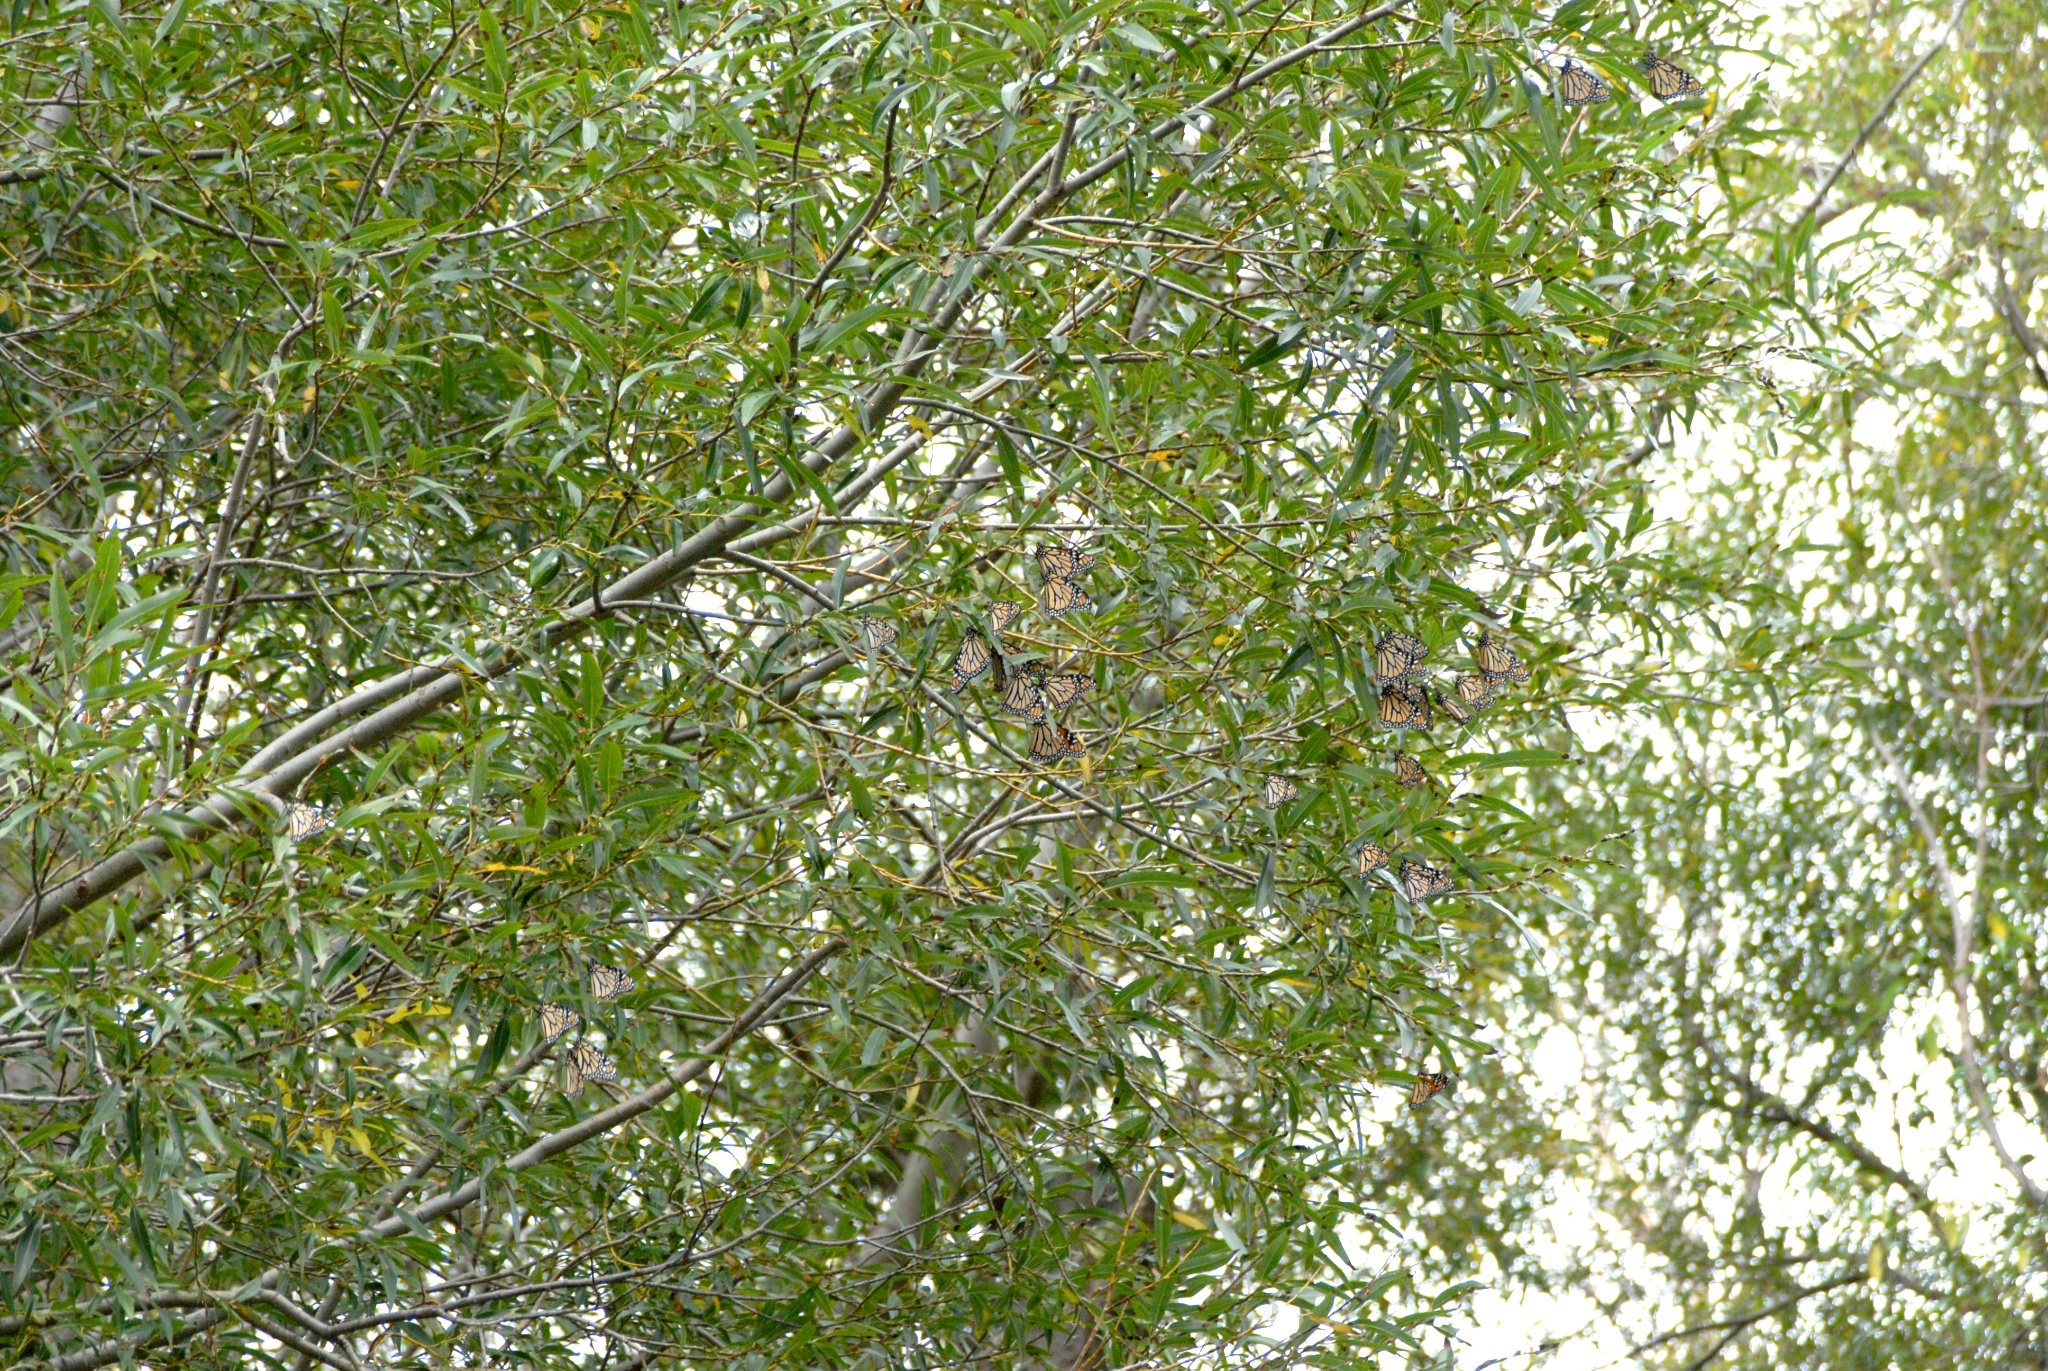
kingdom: Animalia
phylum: Arthropoda
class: Insecta
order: Lepidoptera
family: Nymphalidae
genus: Danaus
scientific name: Danaus plexippus
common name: Monarch
